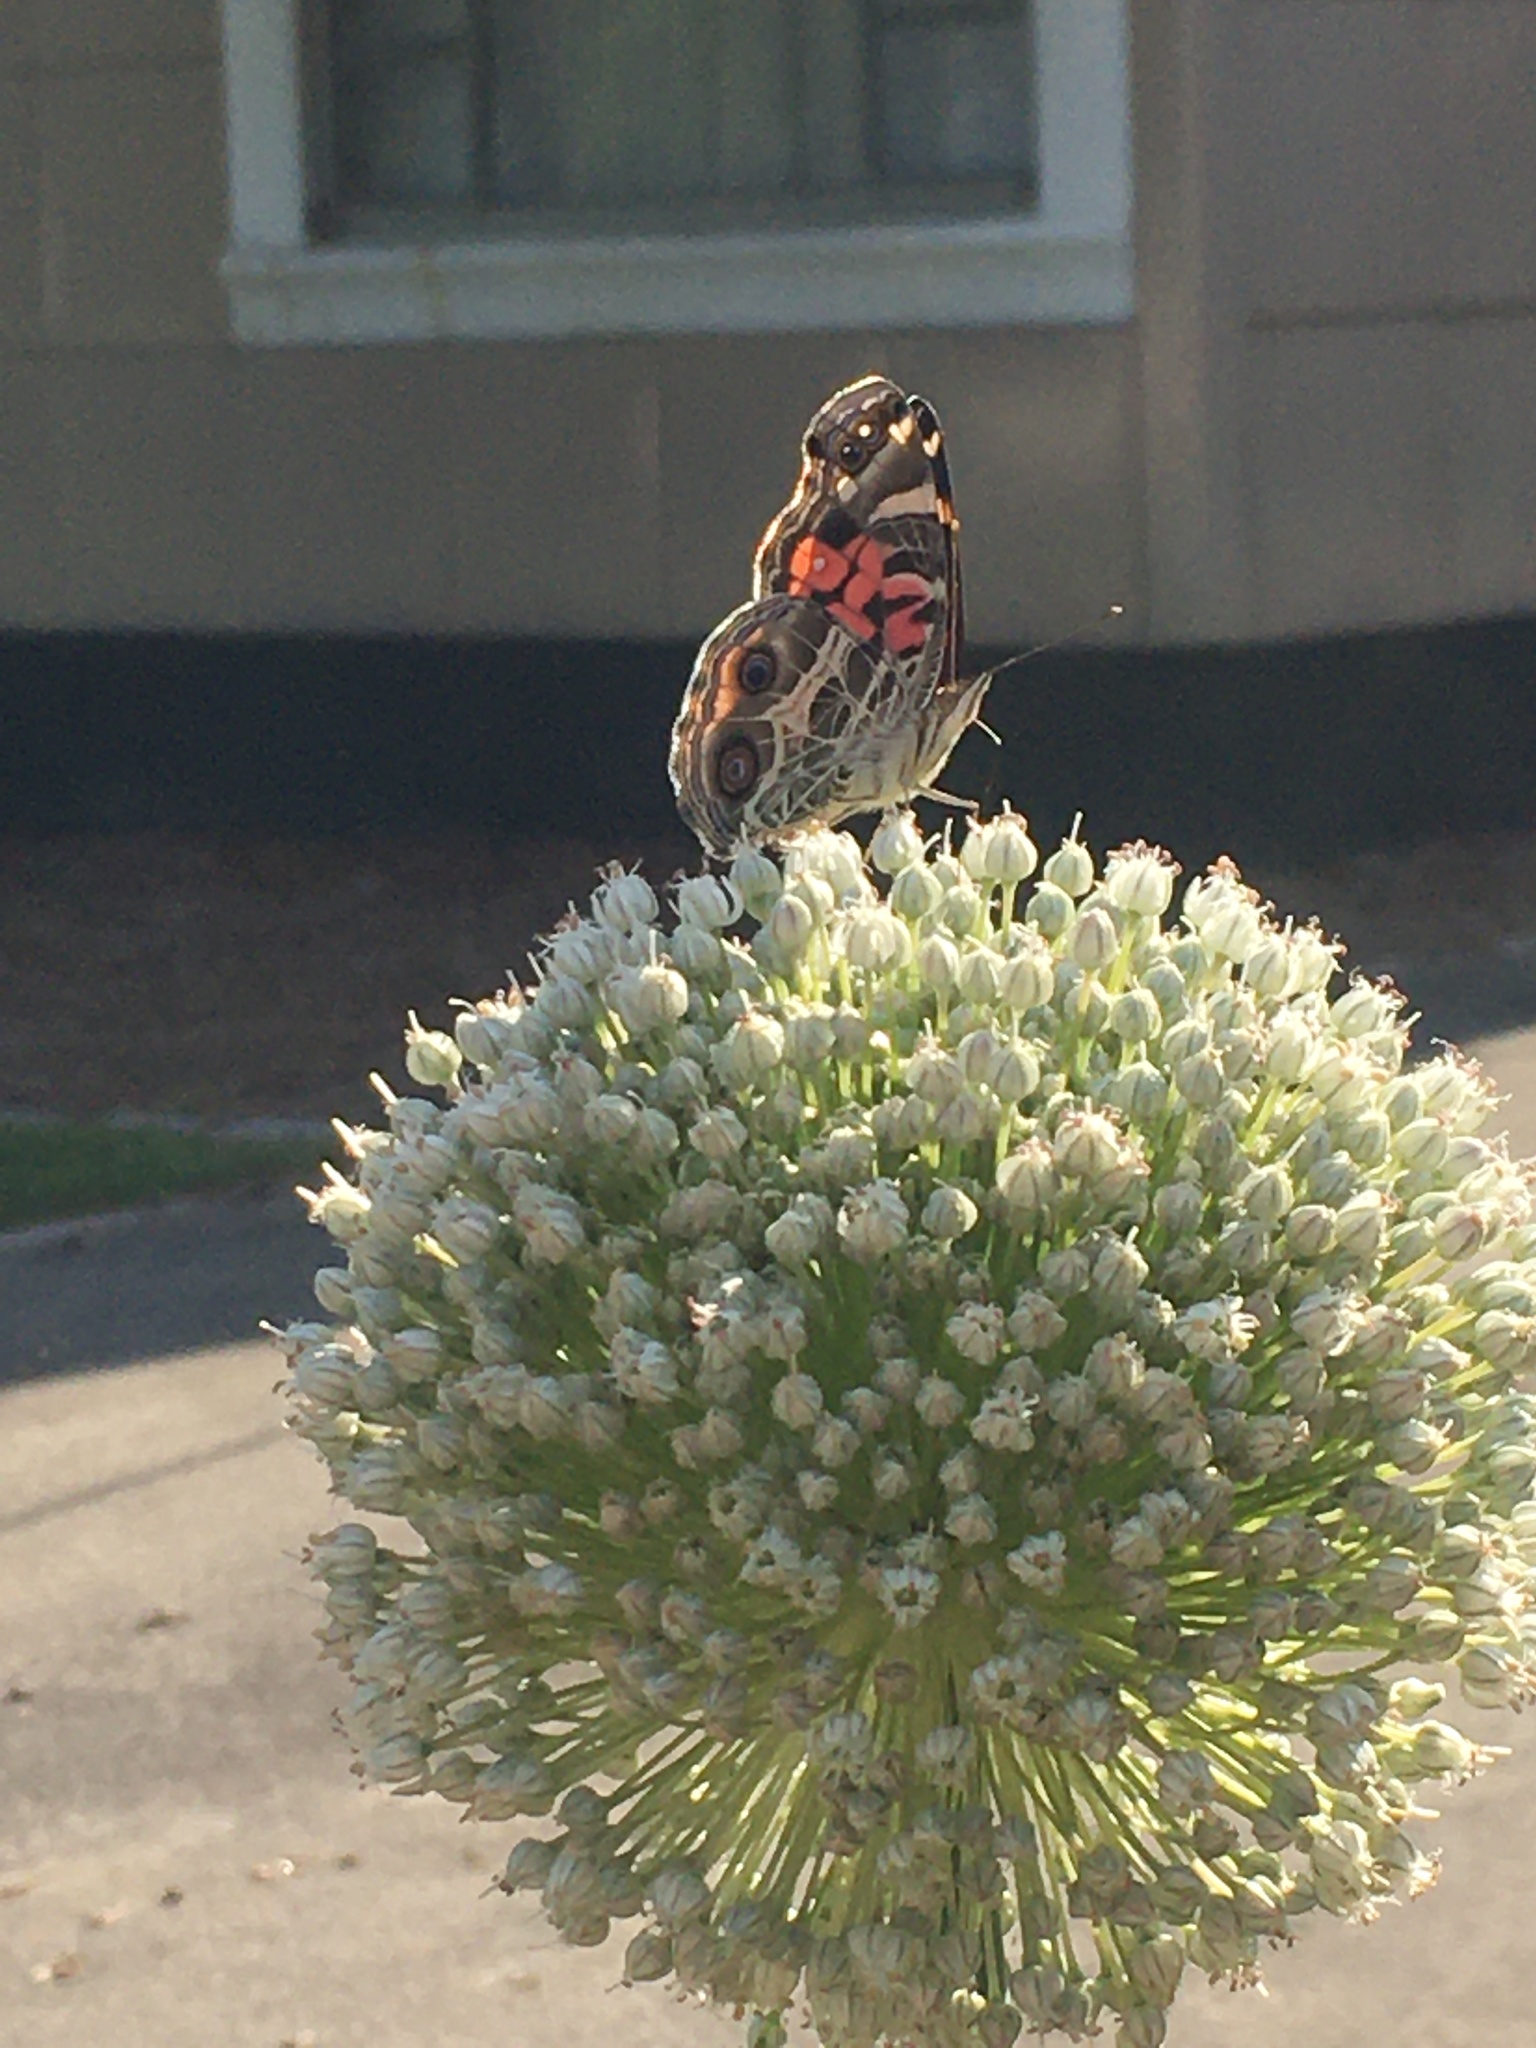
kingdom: Animalia
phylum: Arthropoda
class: Insecta
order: Lepidoptera
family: Nymphalidae
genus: Vanessa
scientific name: Vanessa virginiensis
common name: American lady
